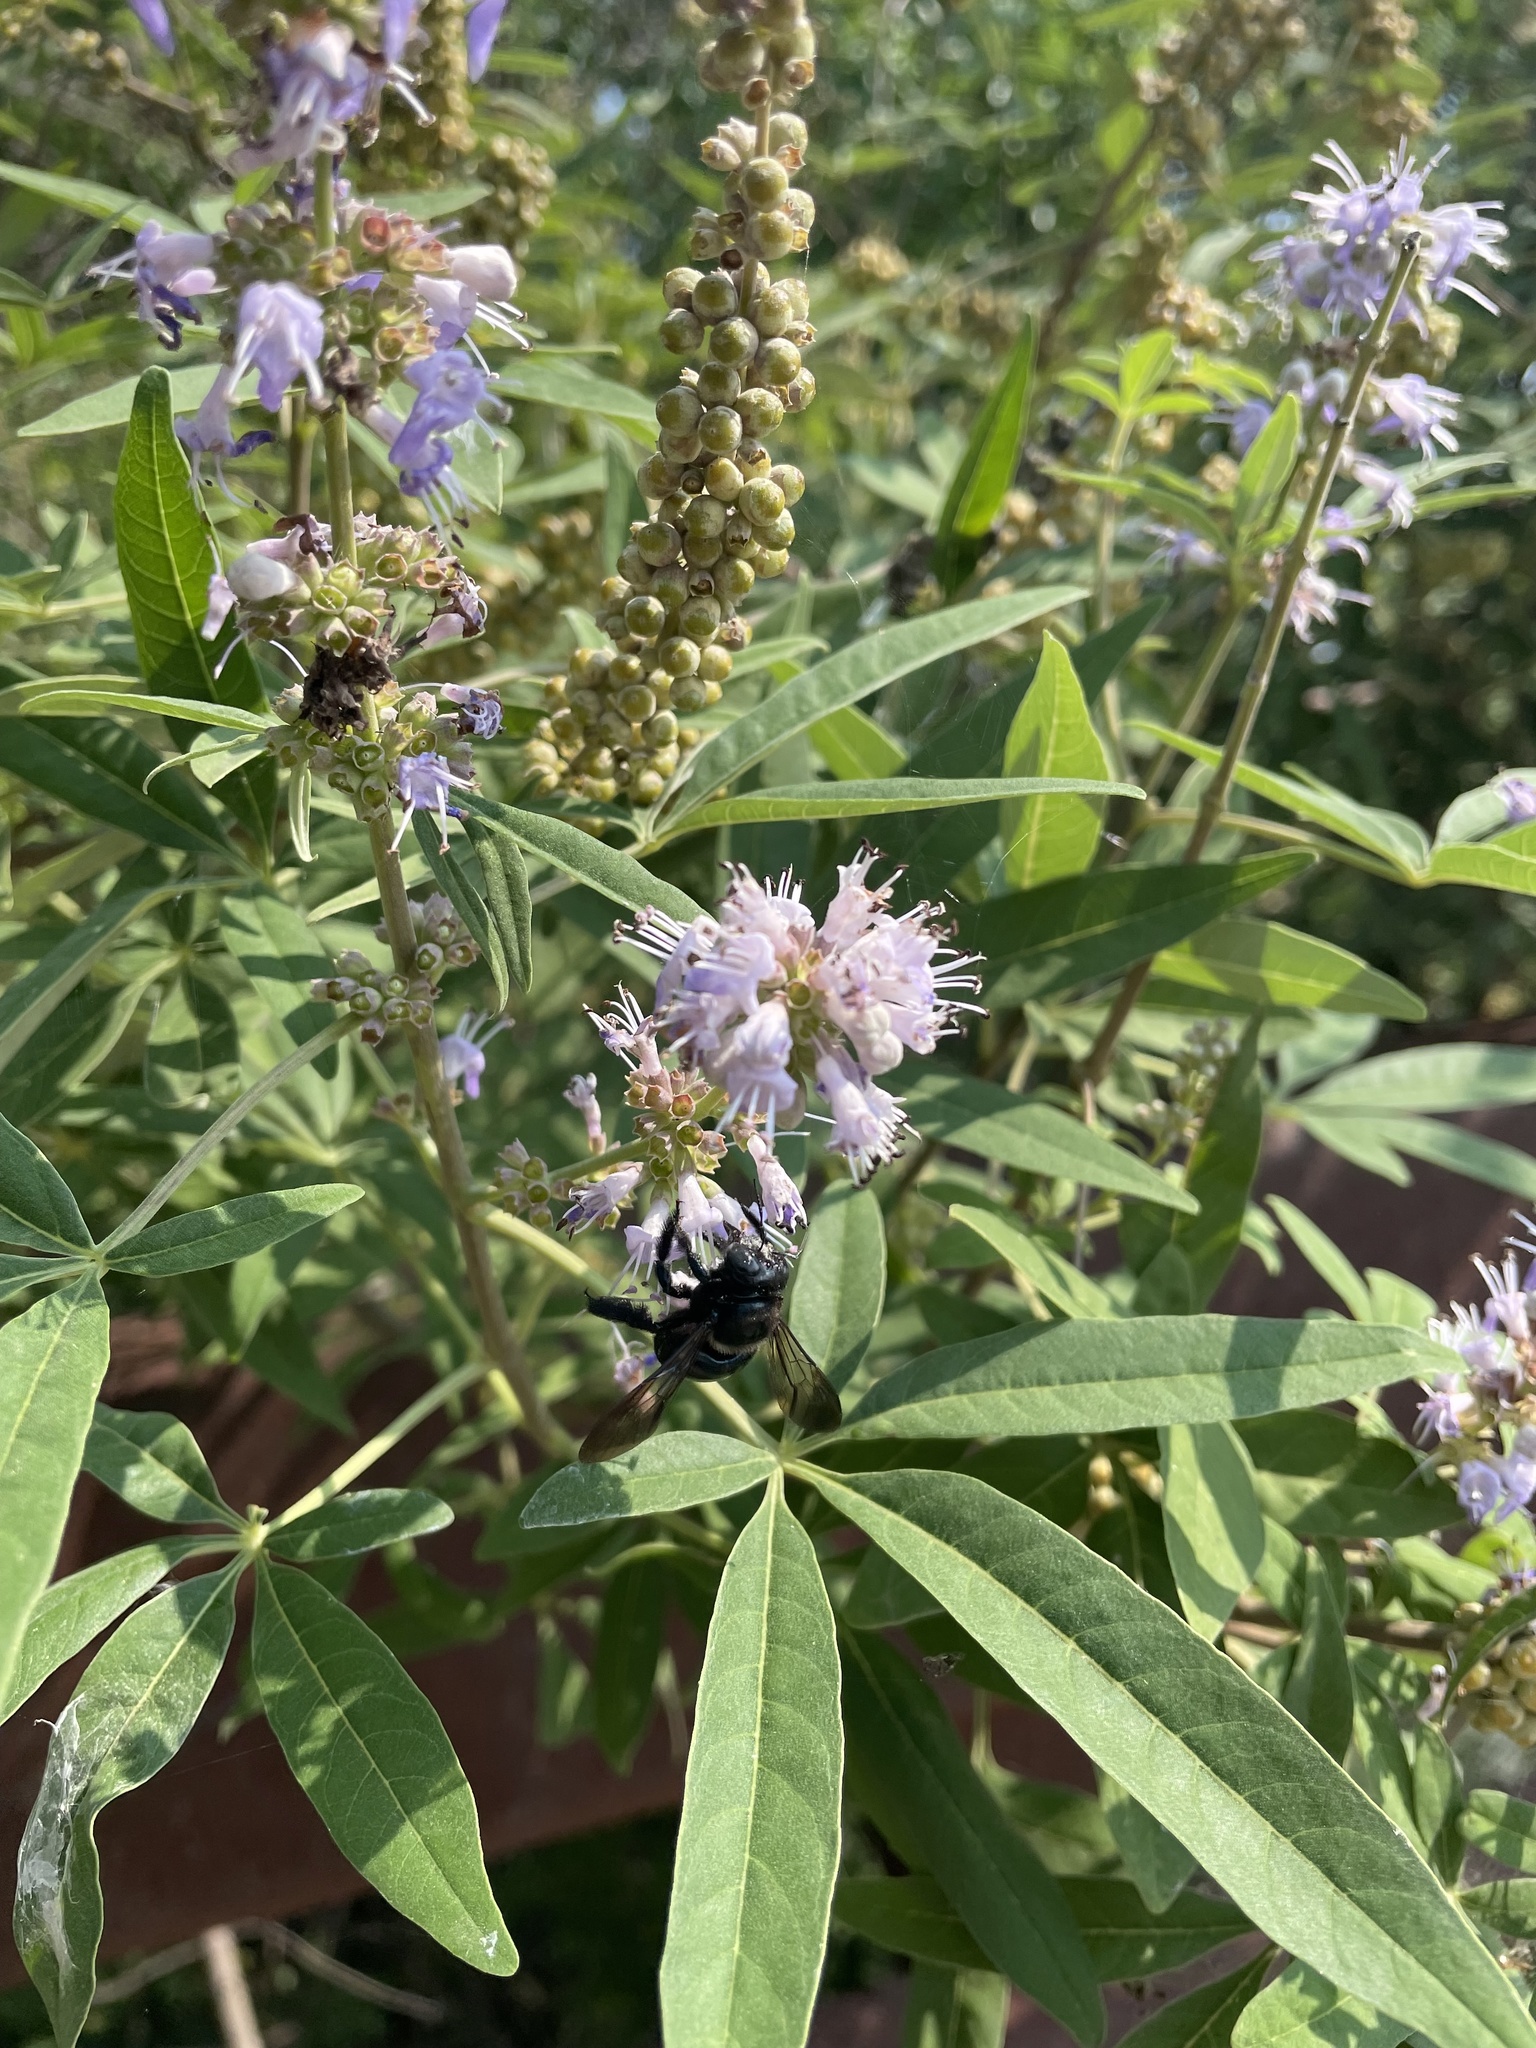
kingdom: Animalia
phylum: Arthropoda
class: Insecta
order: Hymenoptera
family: Apidae
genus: Xylocopa
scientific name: Xylocopa micans
